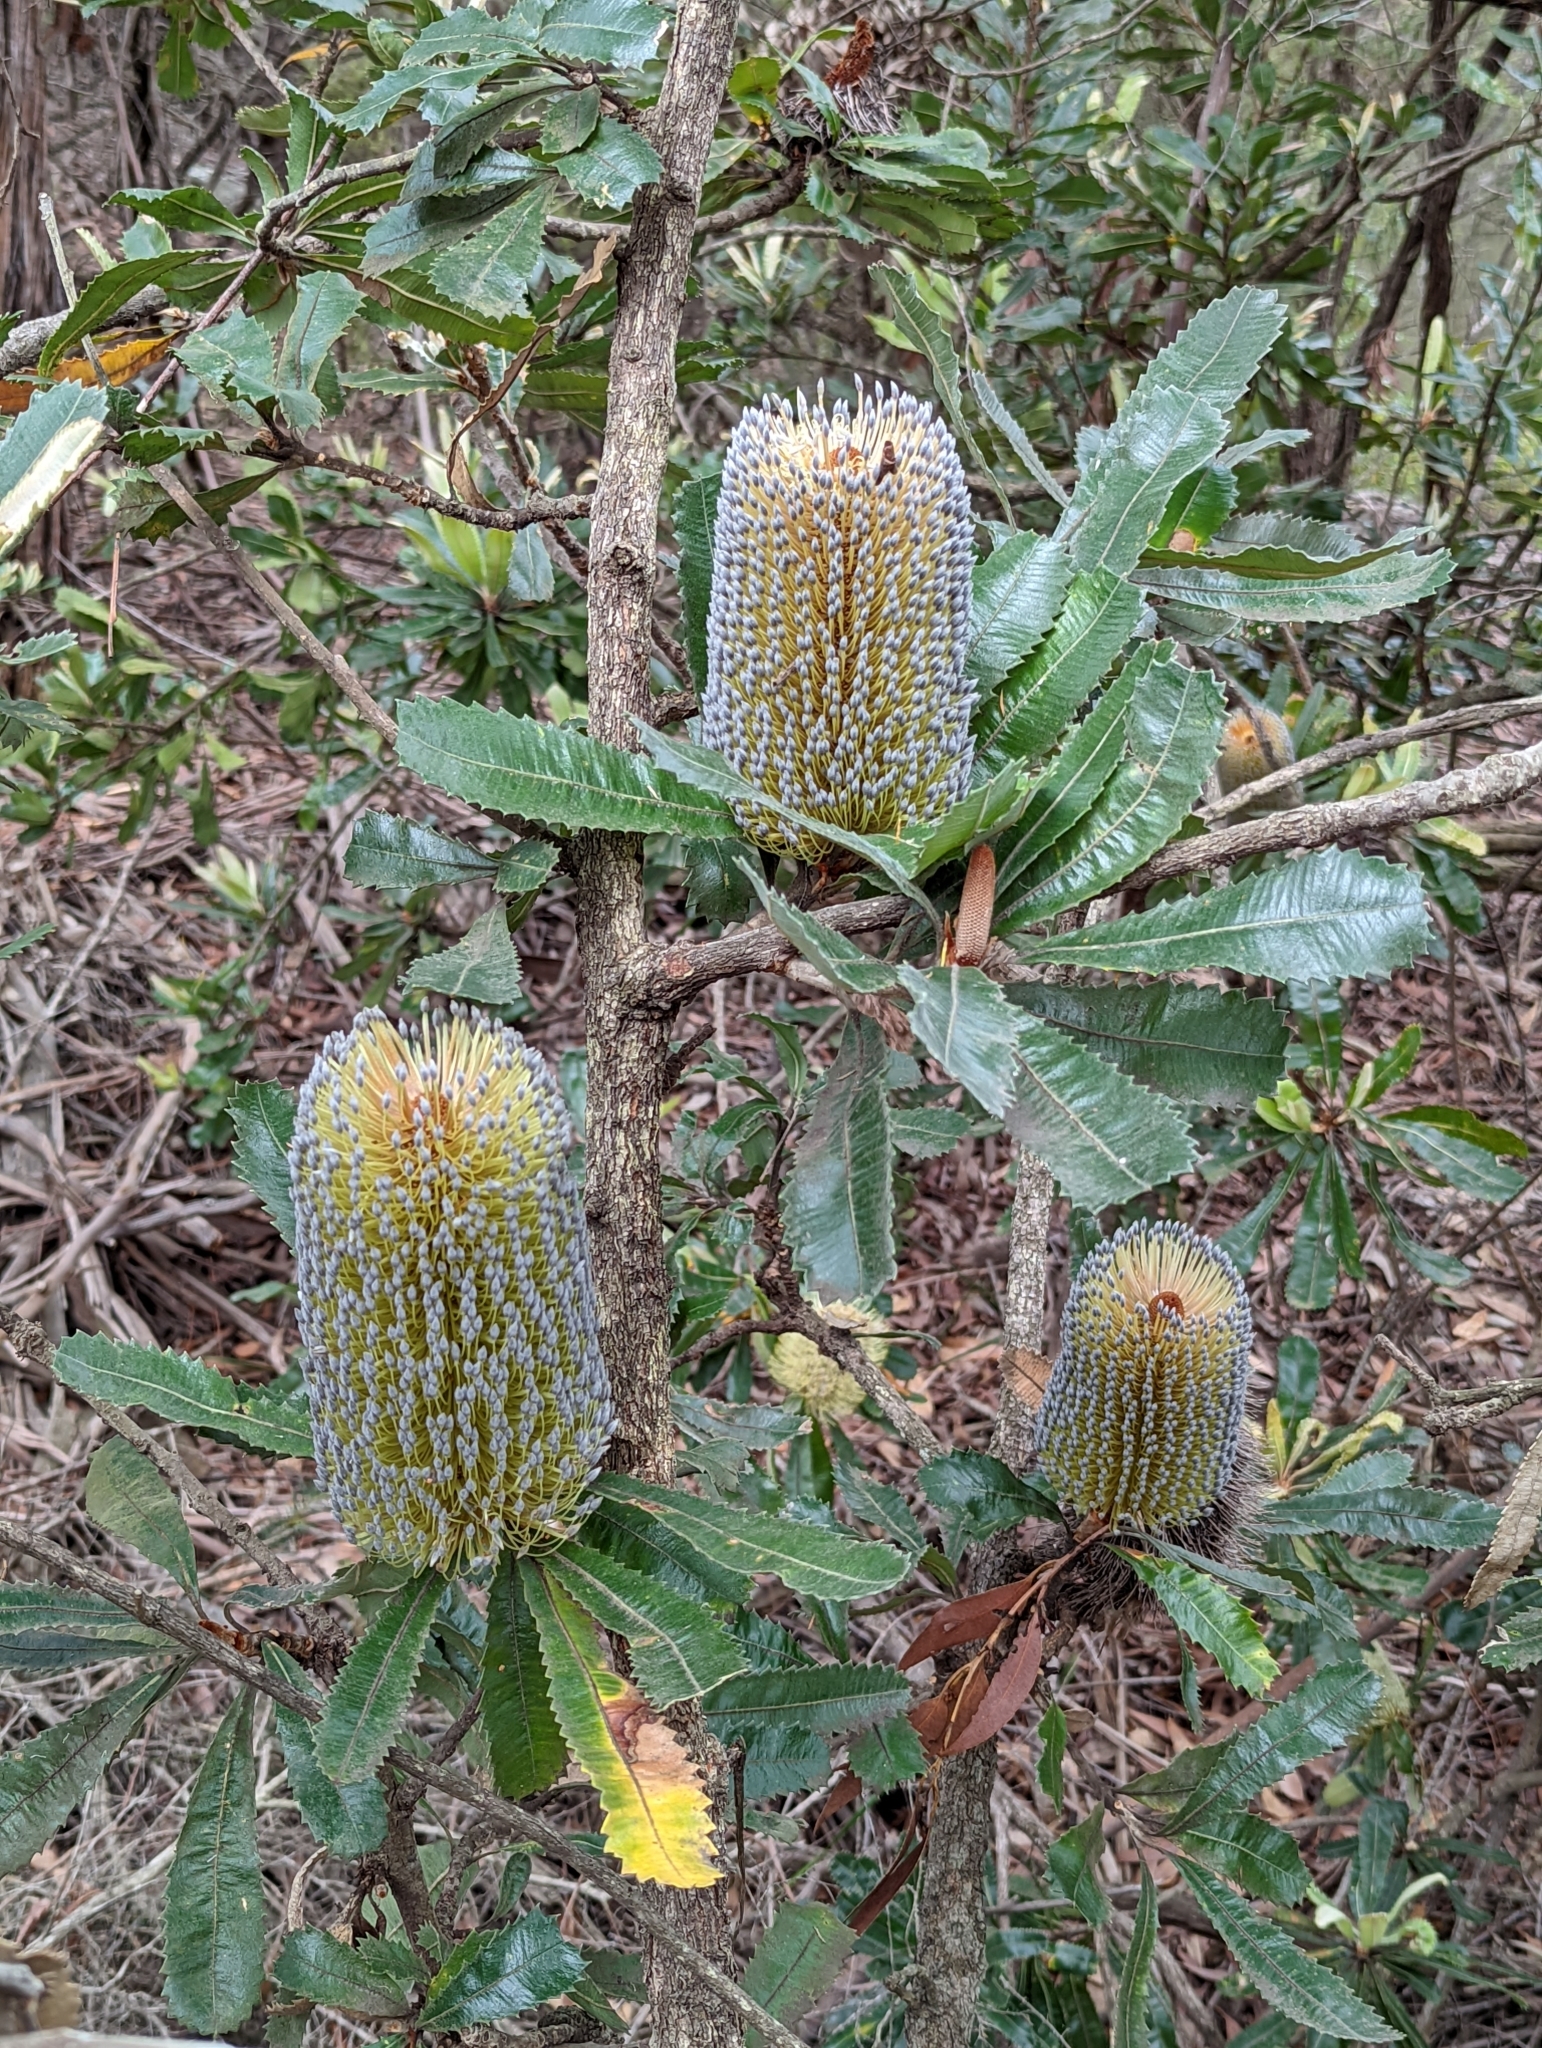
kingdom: Plantae
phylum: Tracheophyta
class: Magnoliopsida
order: Proteales
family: Proteaceae
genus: Banksia
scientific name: Banksia serrata
